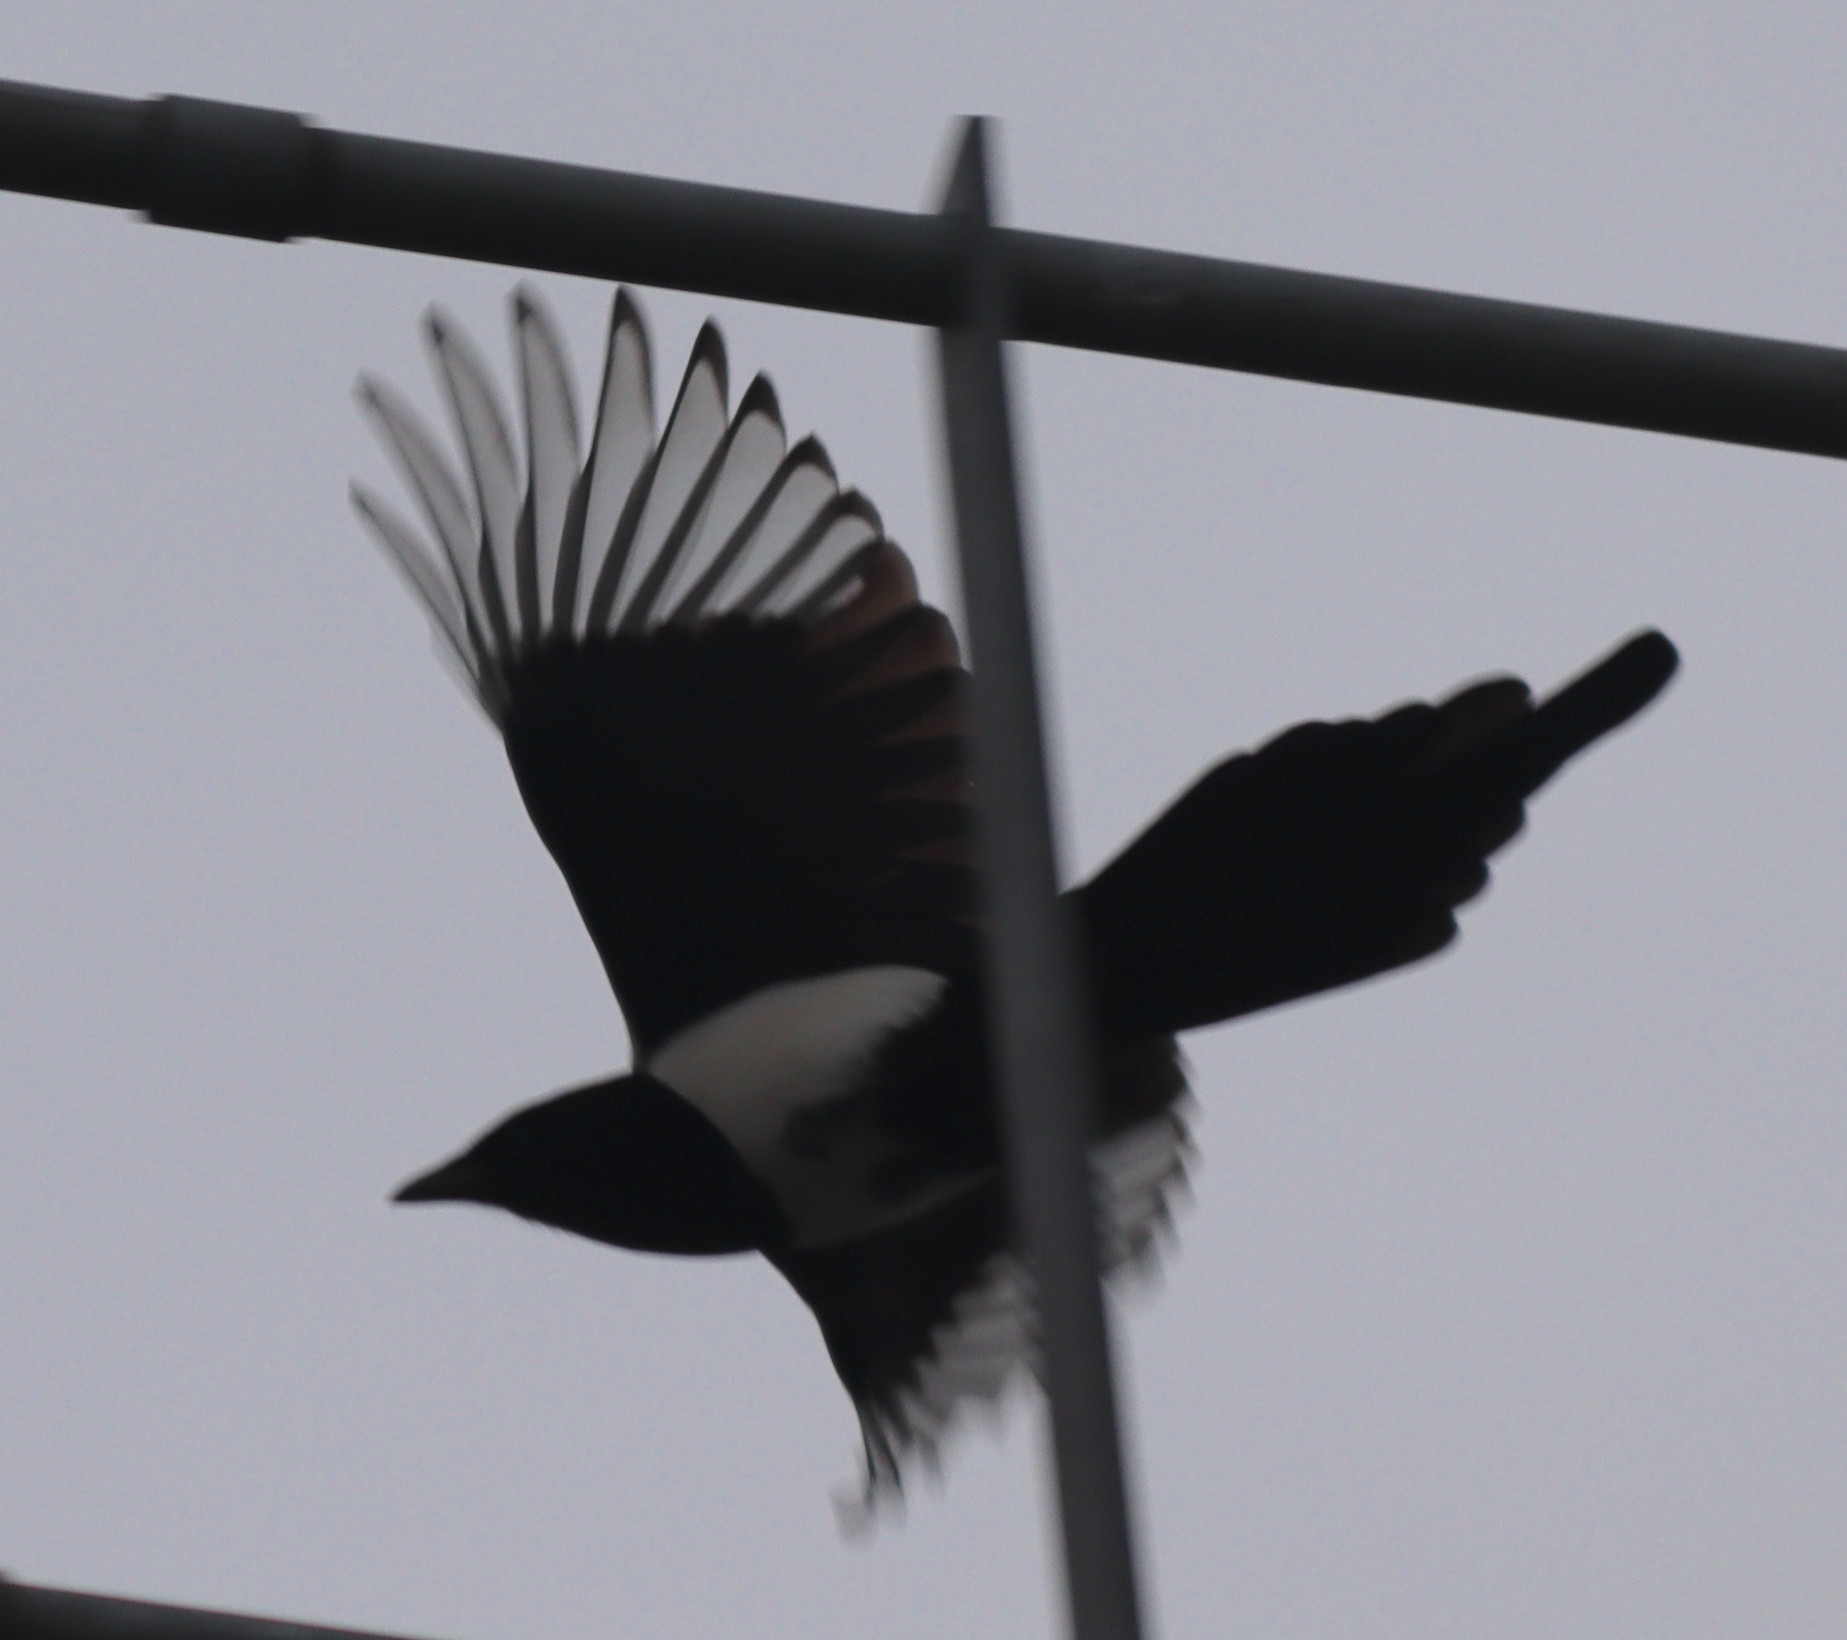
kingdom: Animalia
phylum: Chordata
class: Aves
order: Passeriformes
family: Corvidae
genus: Pica
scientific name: Pica pica
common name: Eurasian magpie
